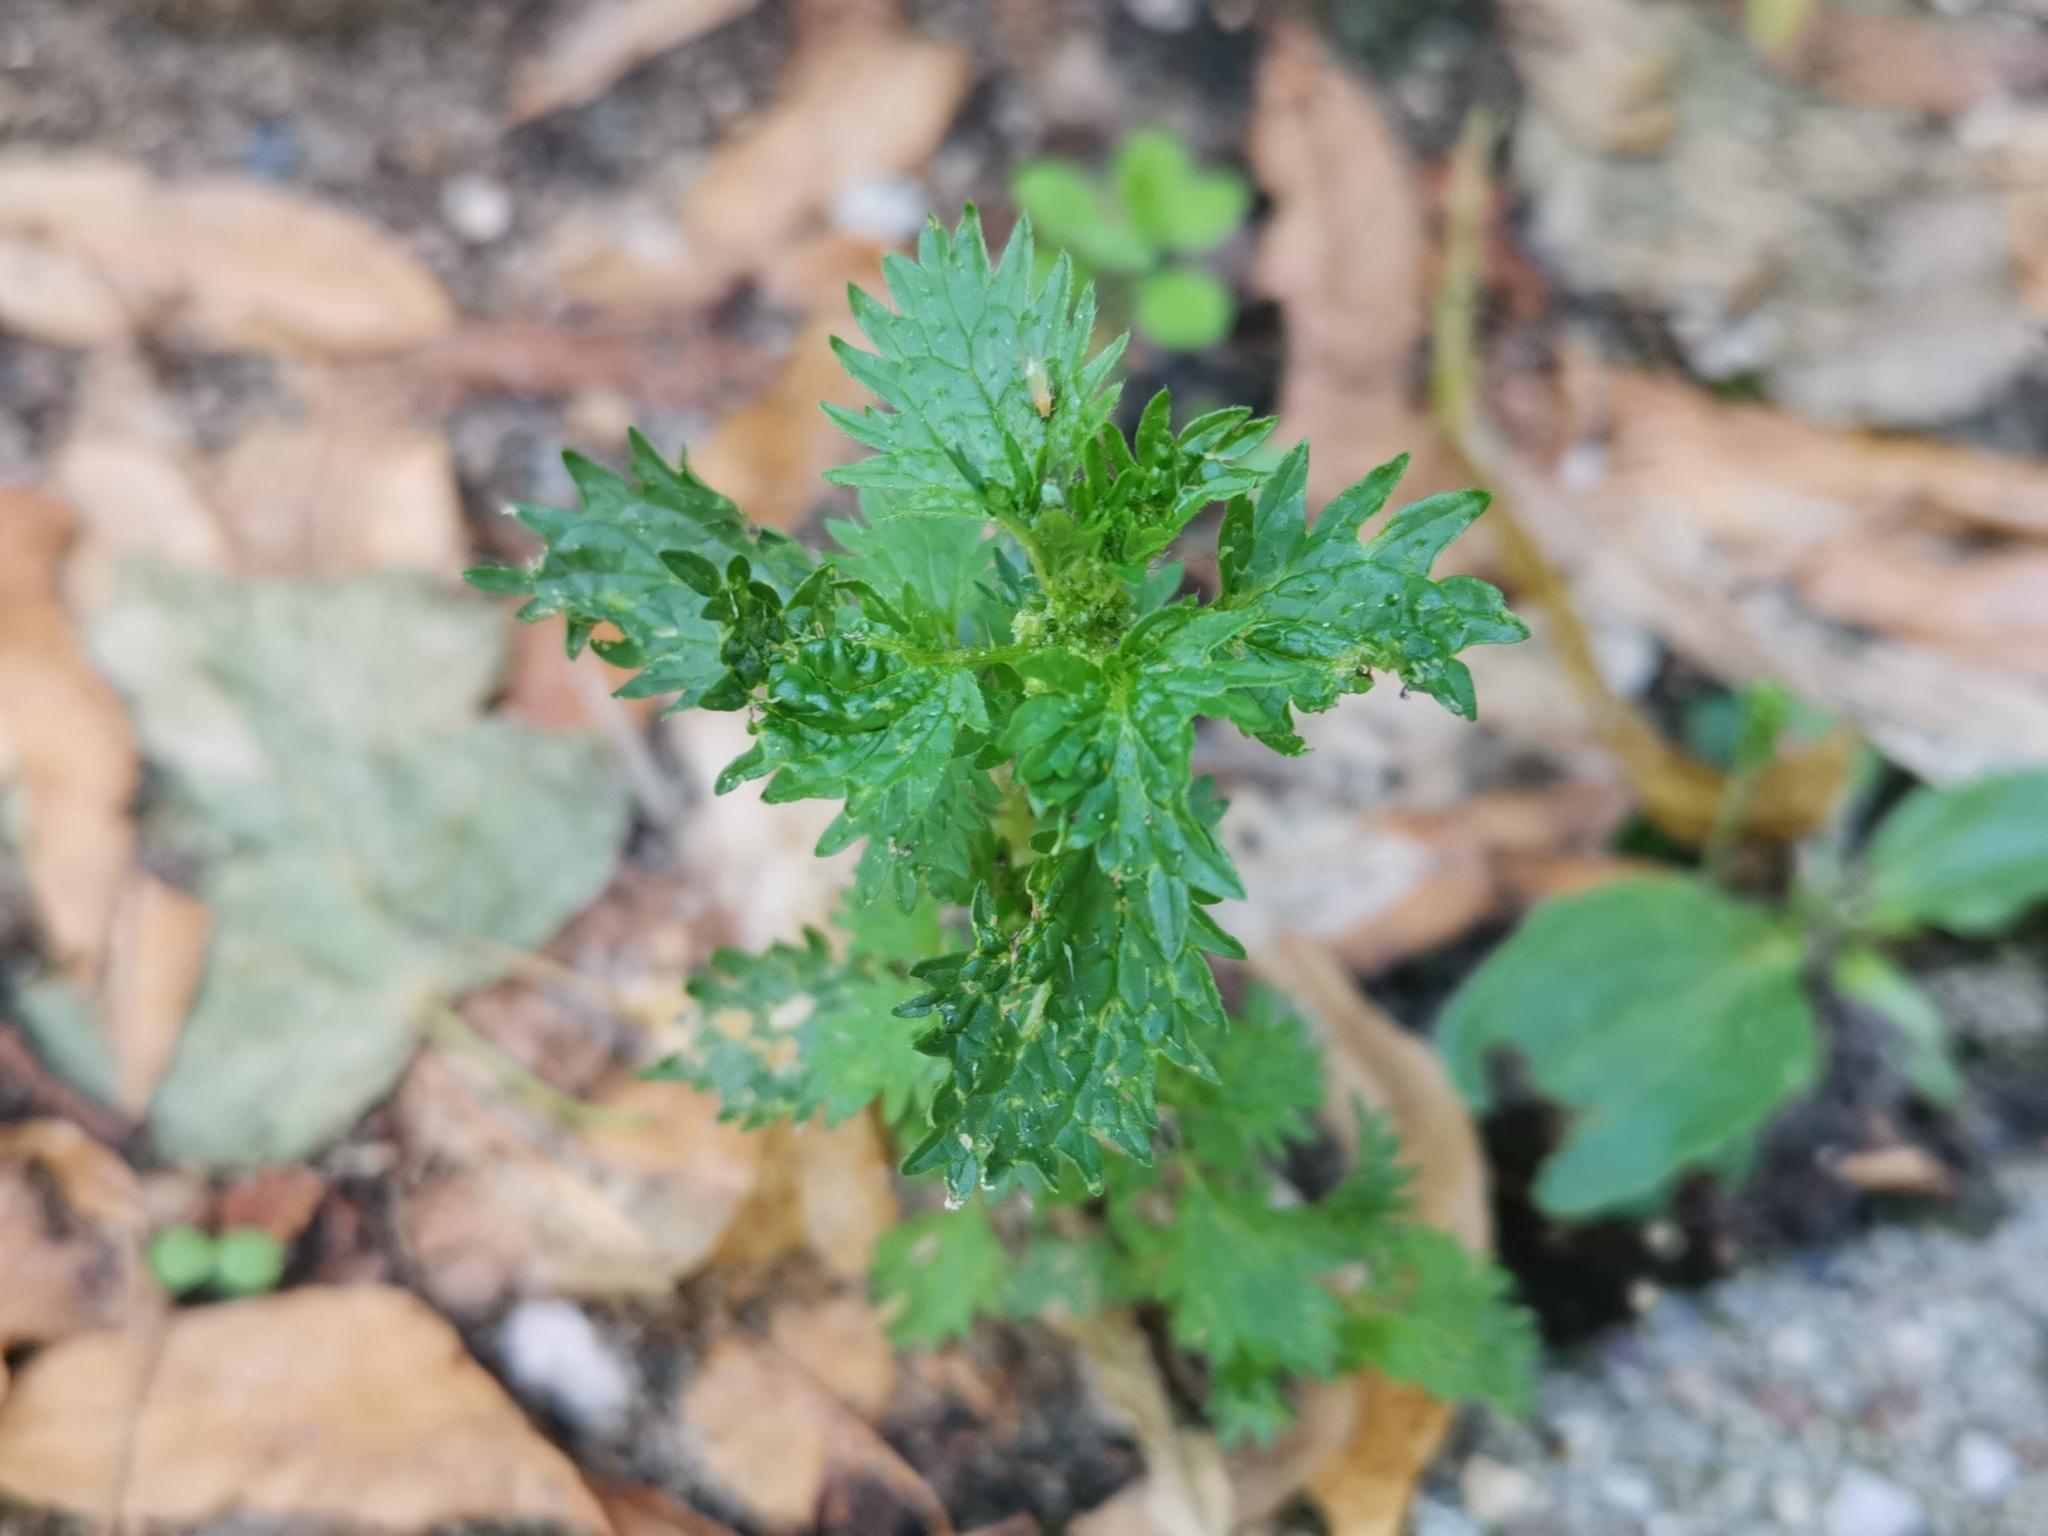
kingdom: Plantae
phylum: Tracheophyta
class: Magnoliopsida
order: Rosales
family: Urticaceae
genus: Urtica
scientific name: Urtica urens
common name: Dwarf nettle
